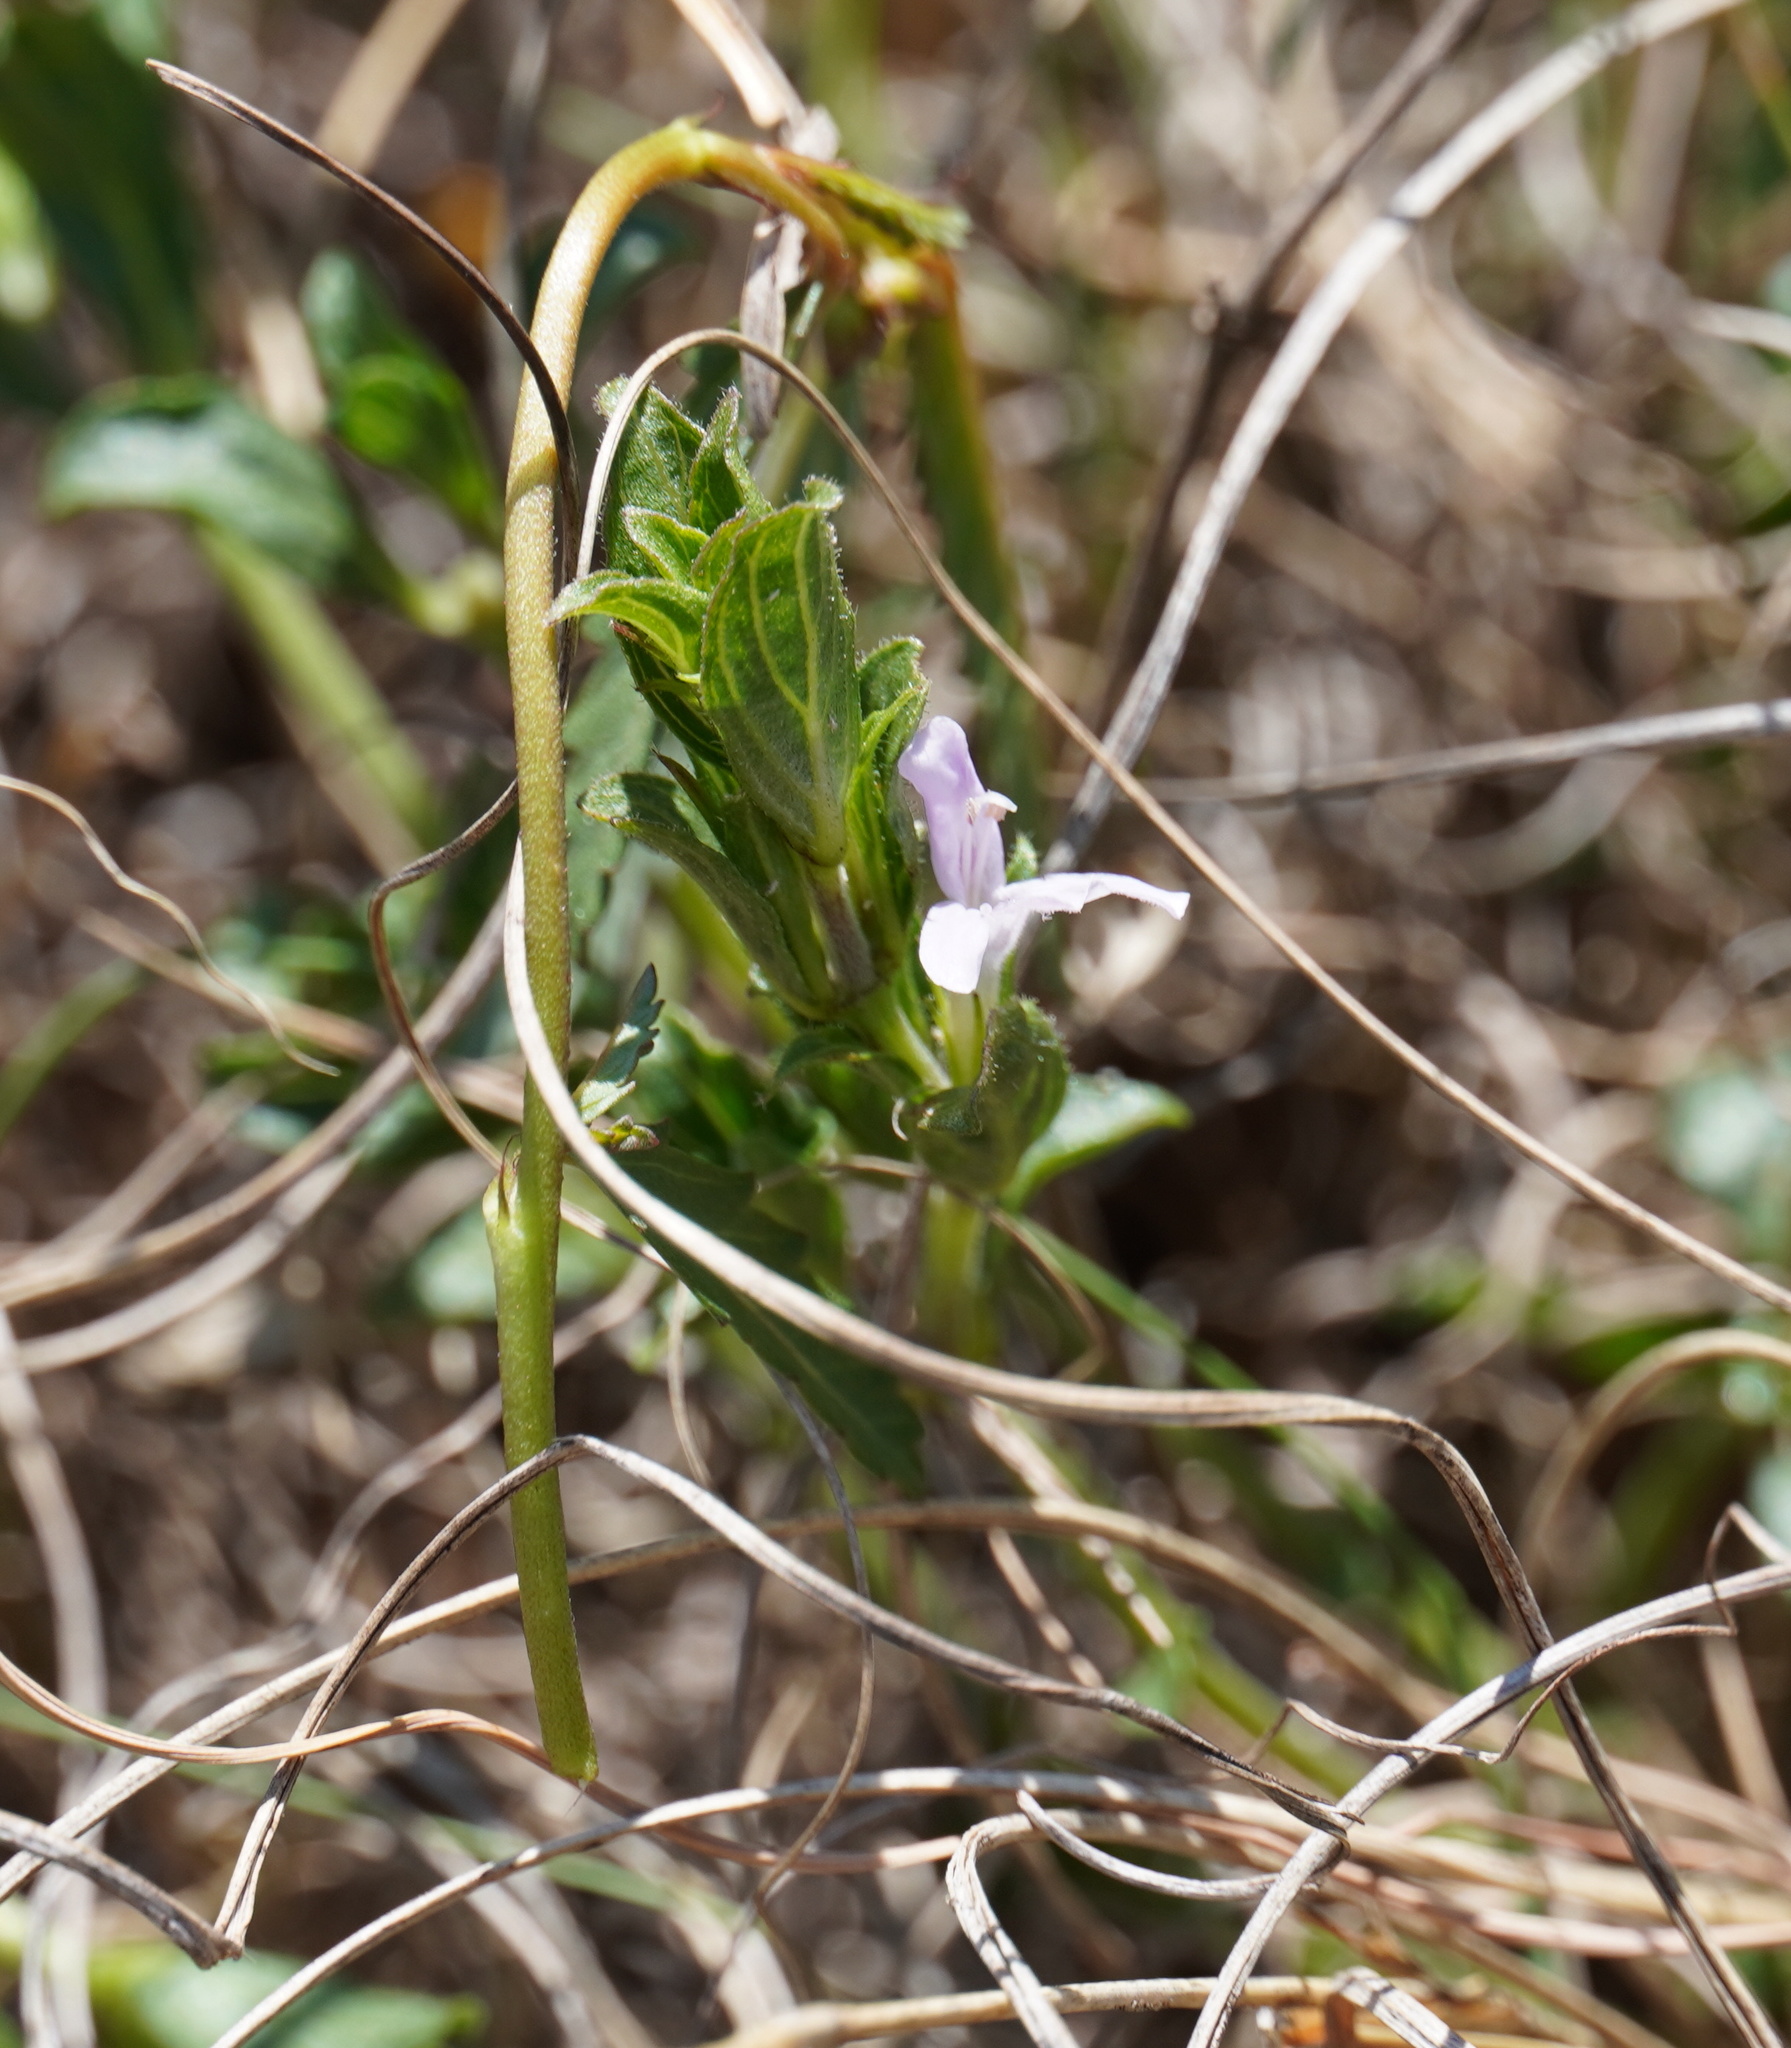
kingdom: Plantae
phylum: Tracheophyta
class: Magnoliopsida
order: Lamiales
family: Acanthaceae
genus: Dyschoriste
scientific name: Dyschoriste setigera
